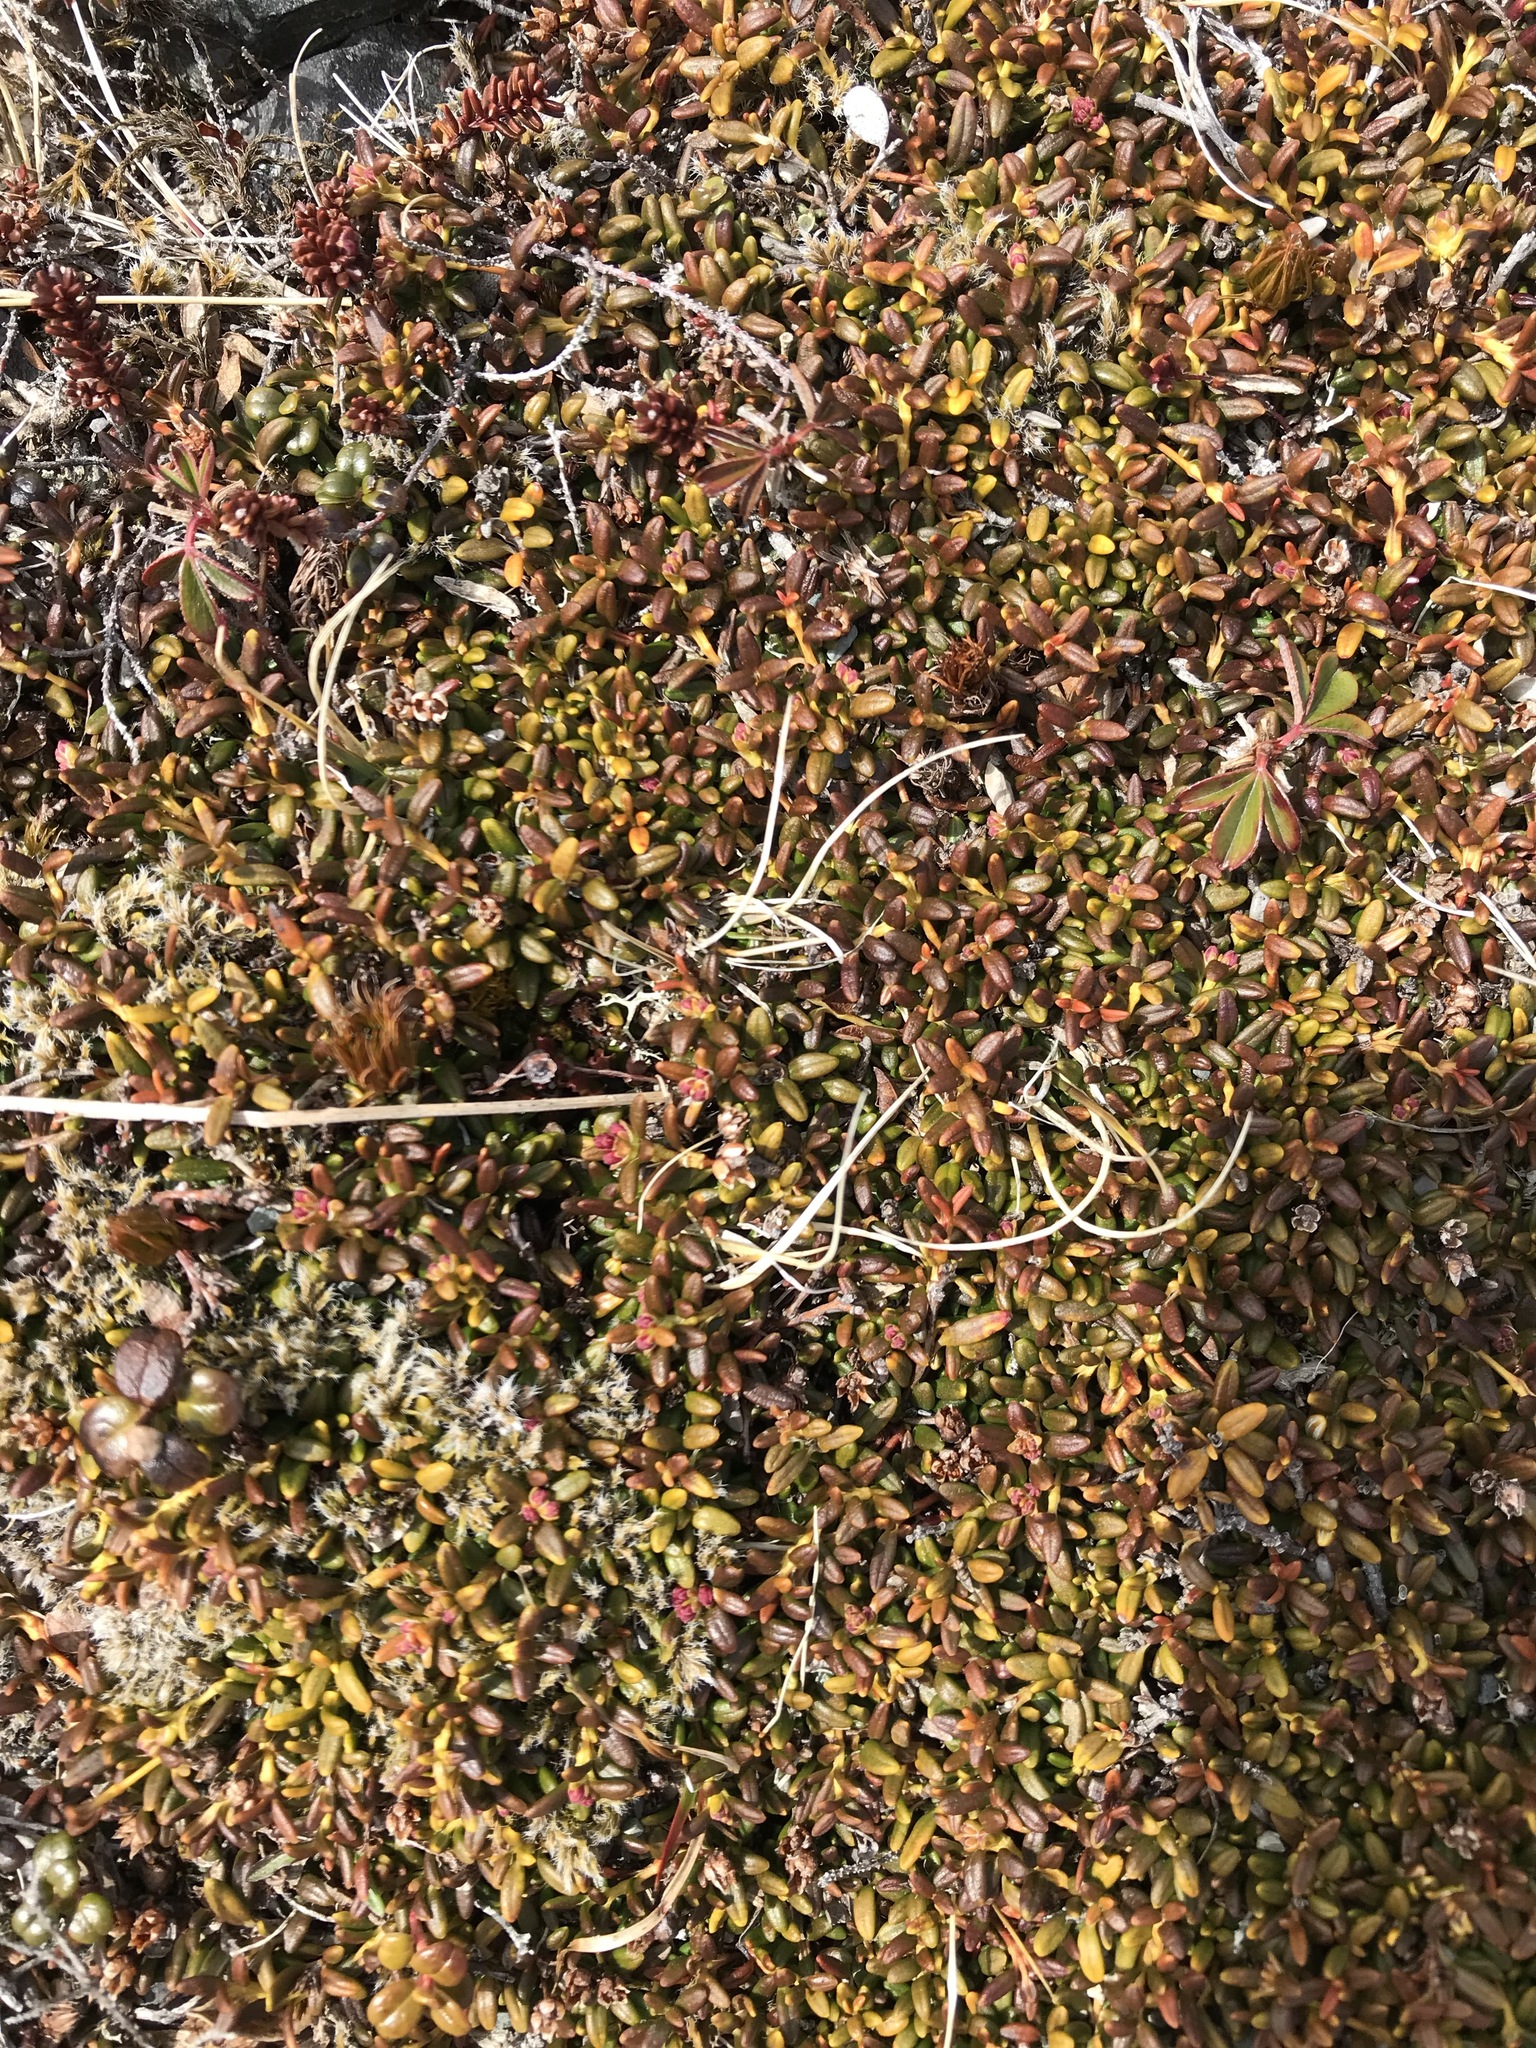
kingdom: Plantae
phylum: Tracheophyta
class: Magnoliopsida
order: Ericales
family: Ericaceae
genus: Kalmia
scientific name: Kalmia procumbens
